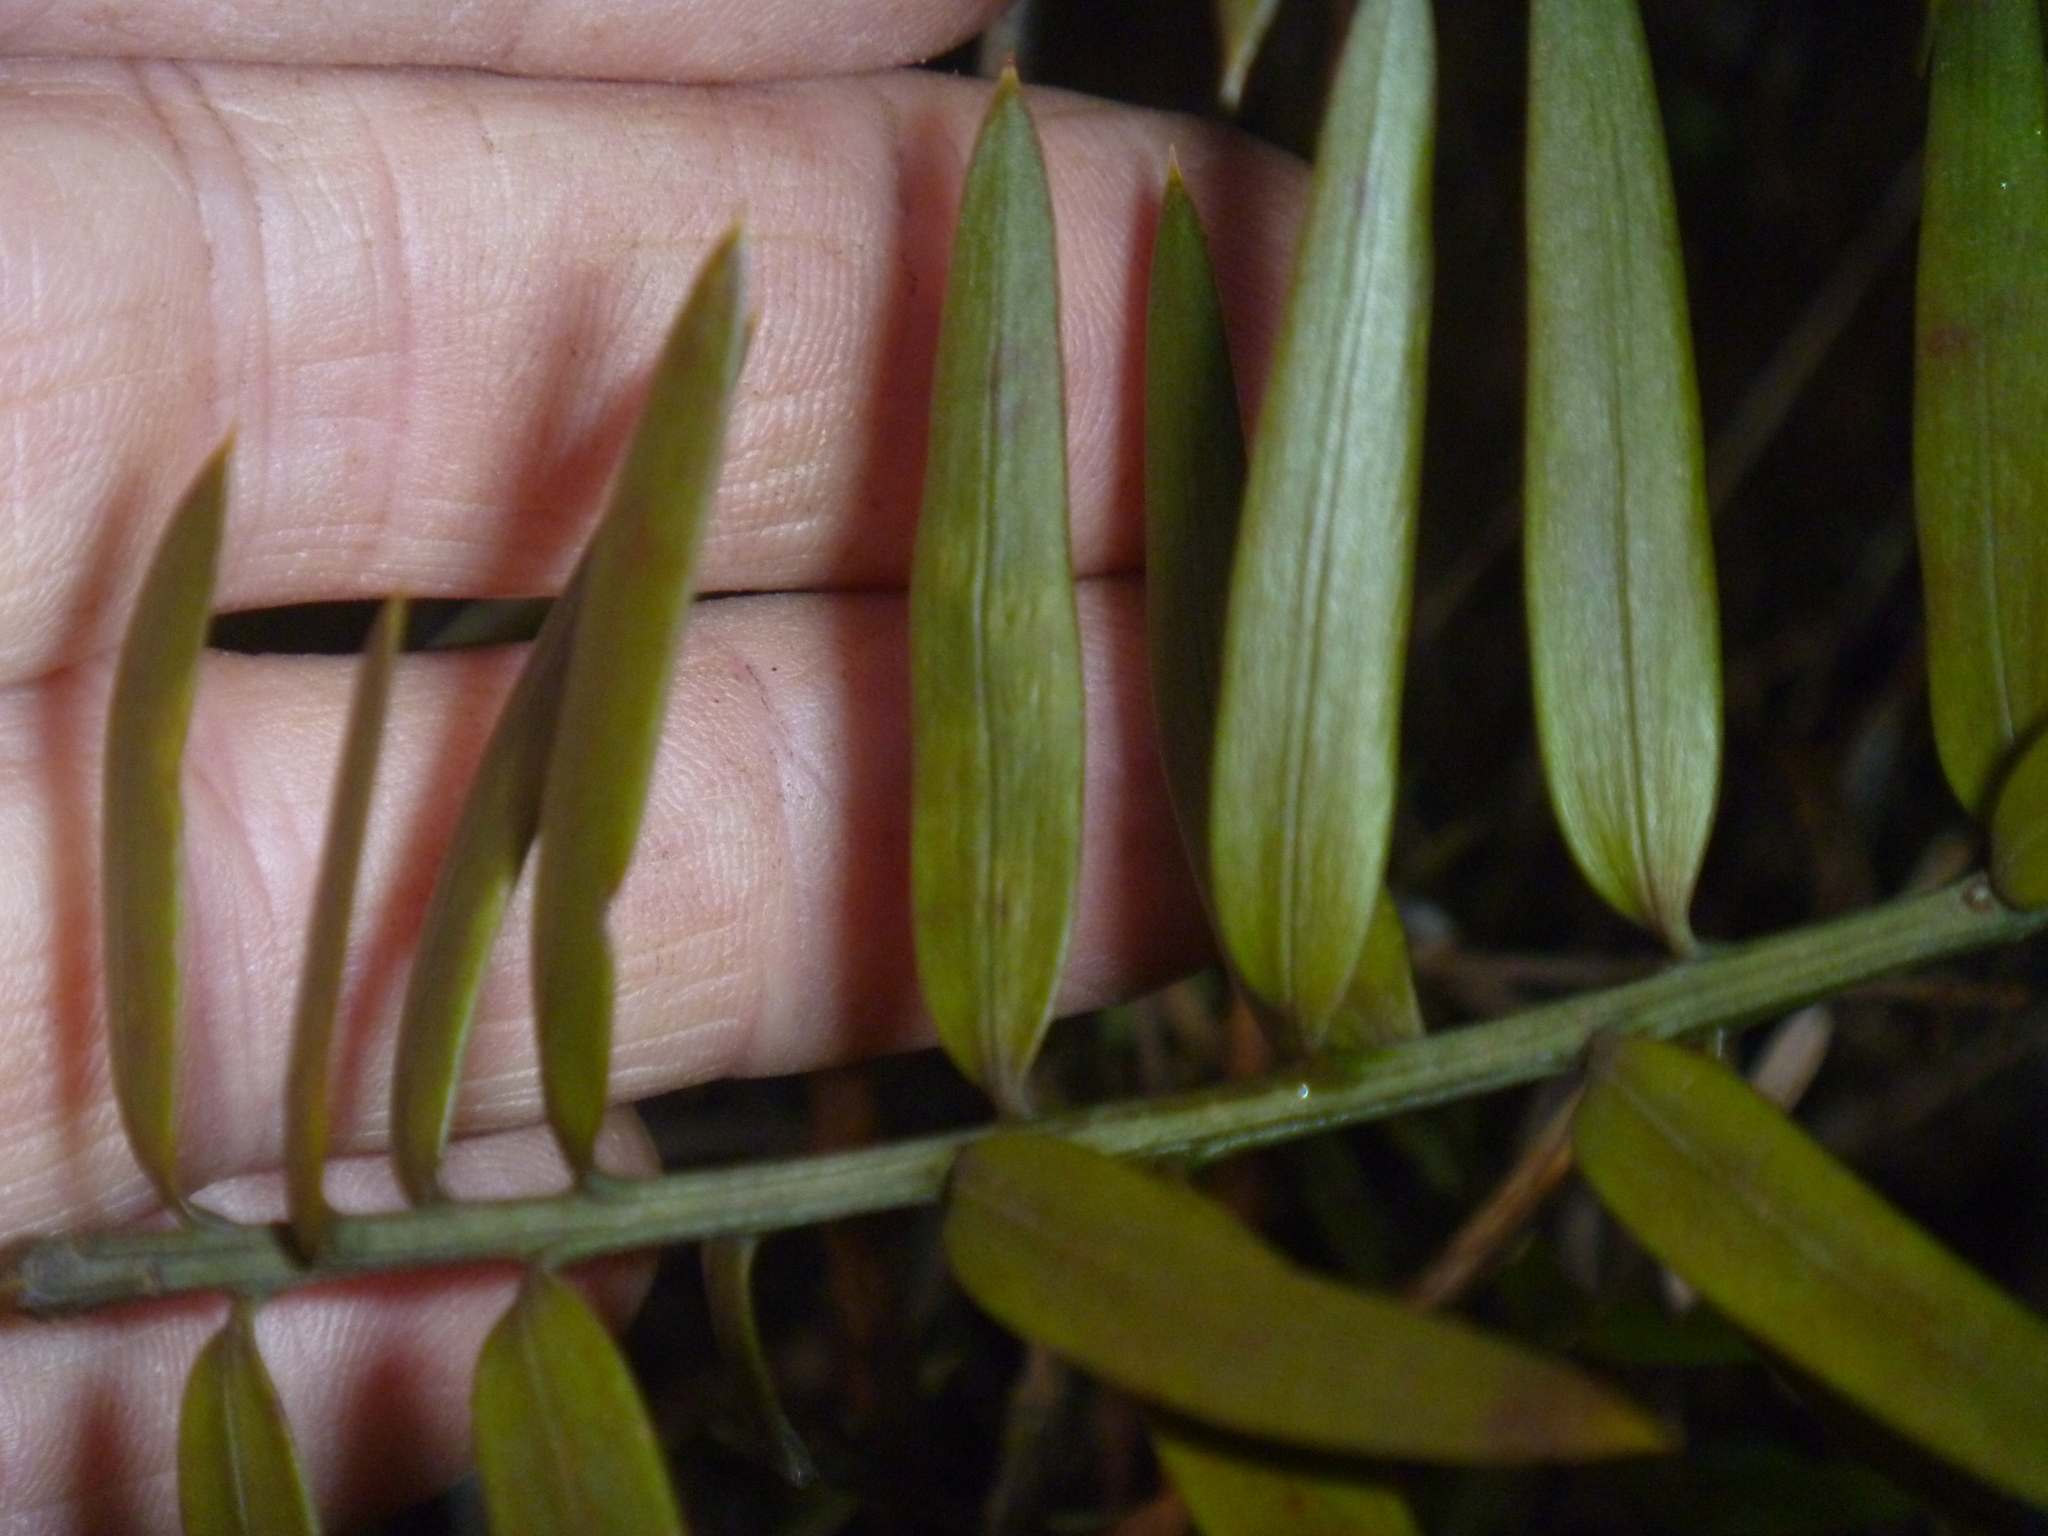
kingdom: Plantae
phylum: Tracheophyta
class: Pinopsida
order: Pinales
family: Podocarpaceae
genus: Podocarpus
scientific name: Podocarpus laetus
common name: Hall's totara
